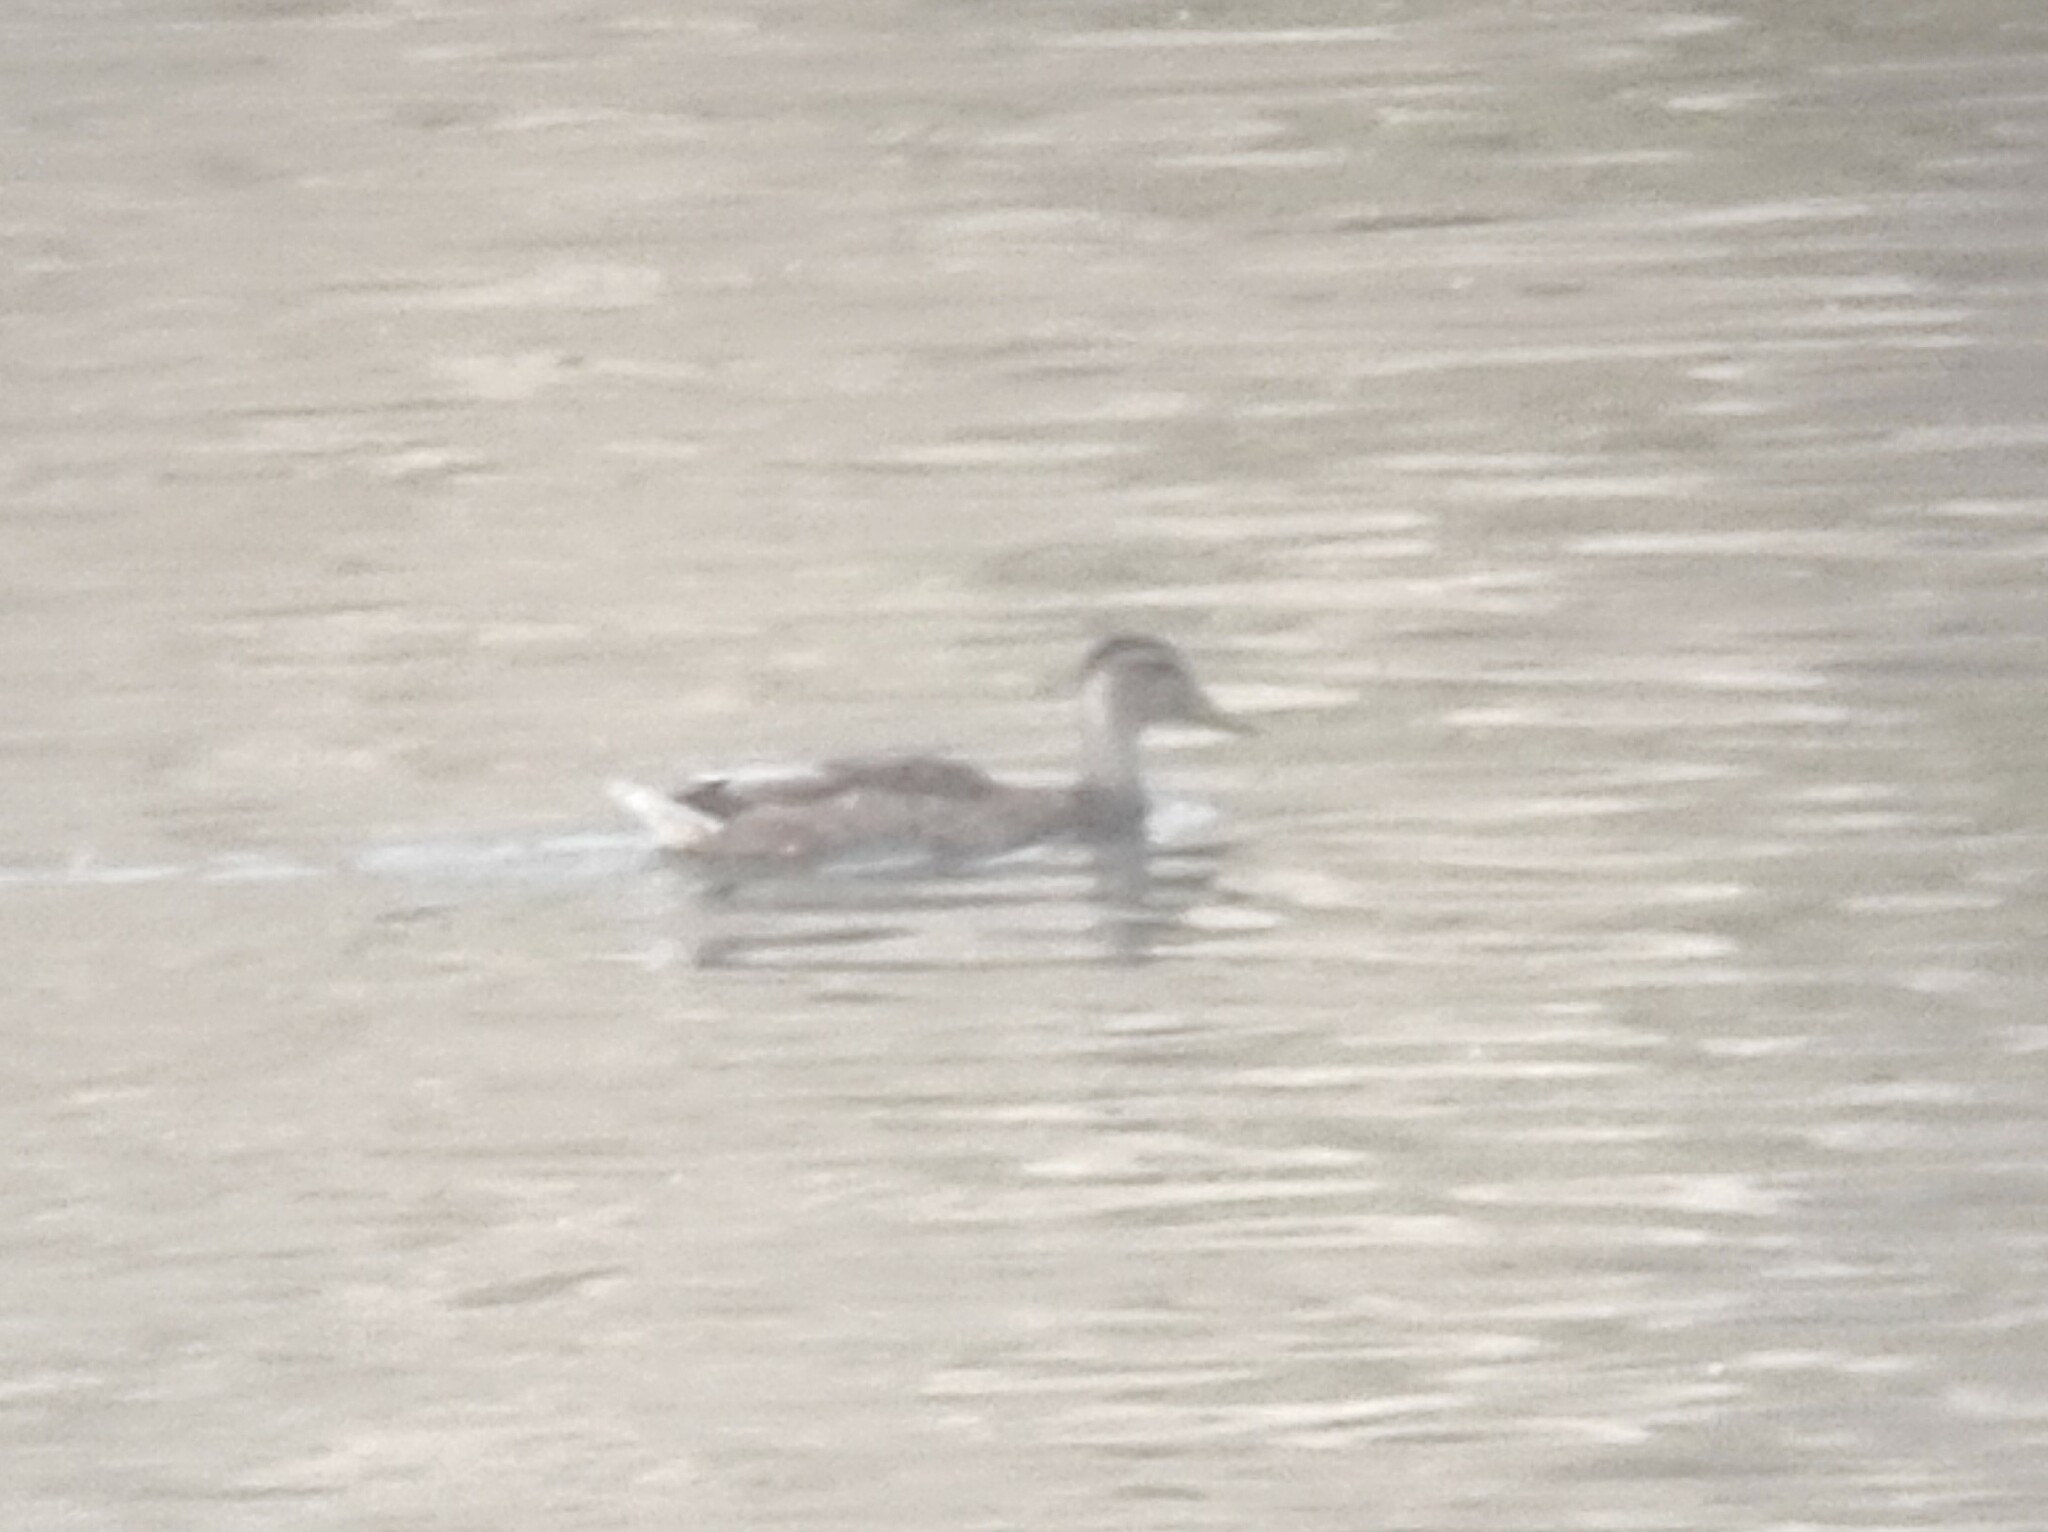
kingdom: Animalia
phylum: Chordata
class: Aves
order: Anseriformes
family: Anatidae
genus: Anas
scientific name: Anas platyrhynchos
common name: Mallard
